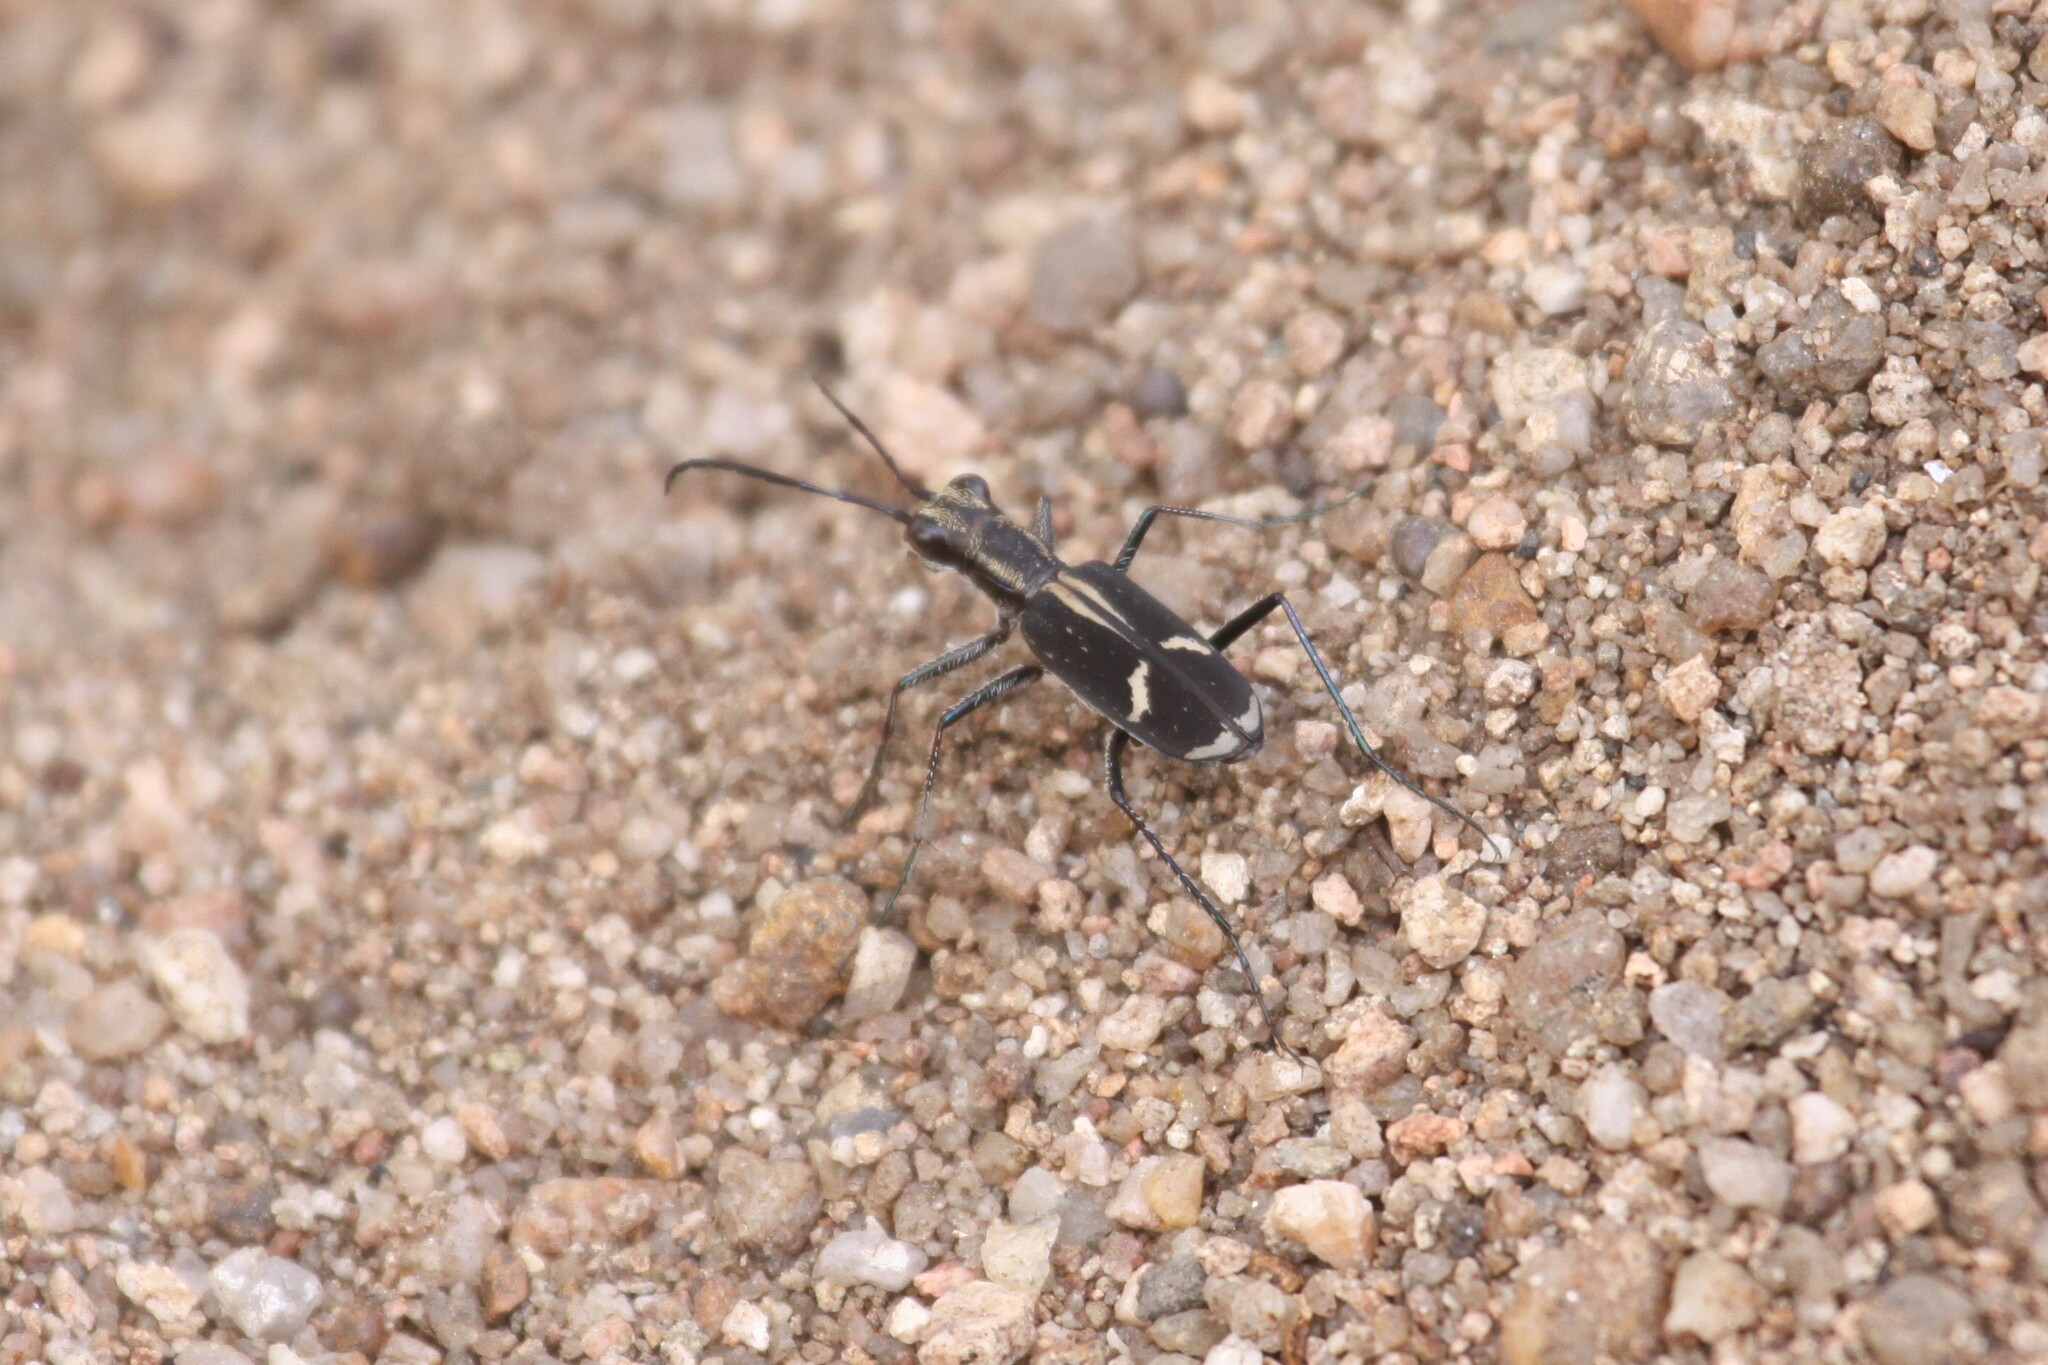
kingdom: Animalia
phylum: Arthropoda
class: Insecta
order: Coleoptera
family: Carabidae
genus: Cicindela
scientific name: Cicindela compressicornis
